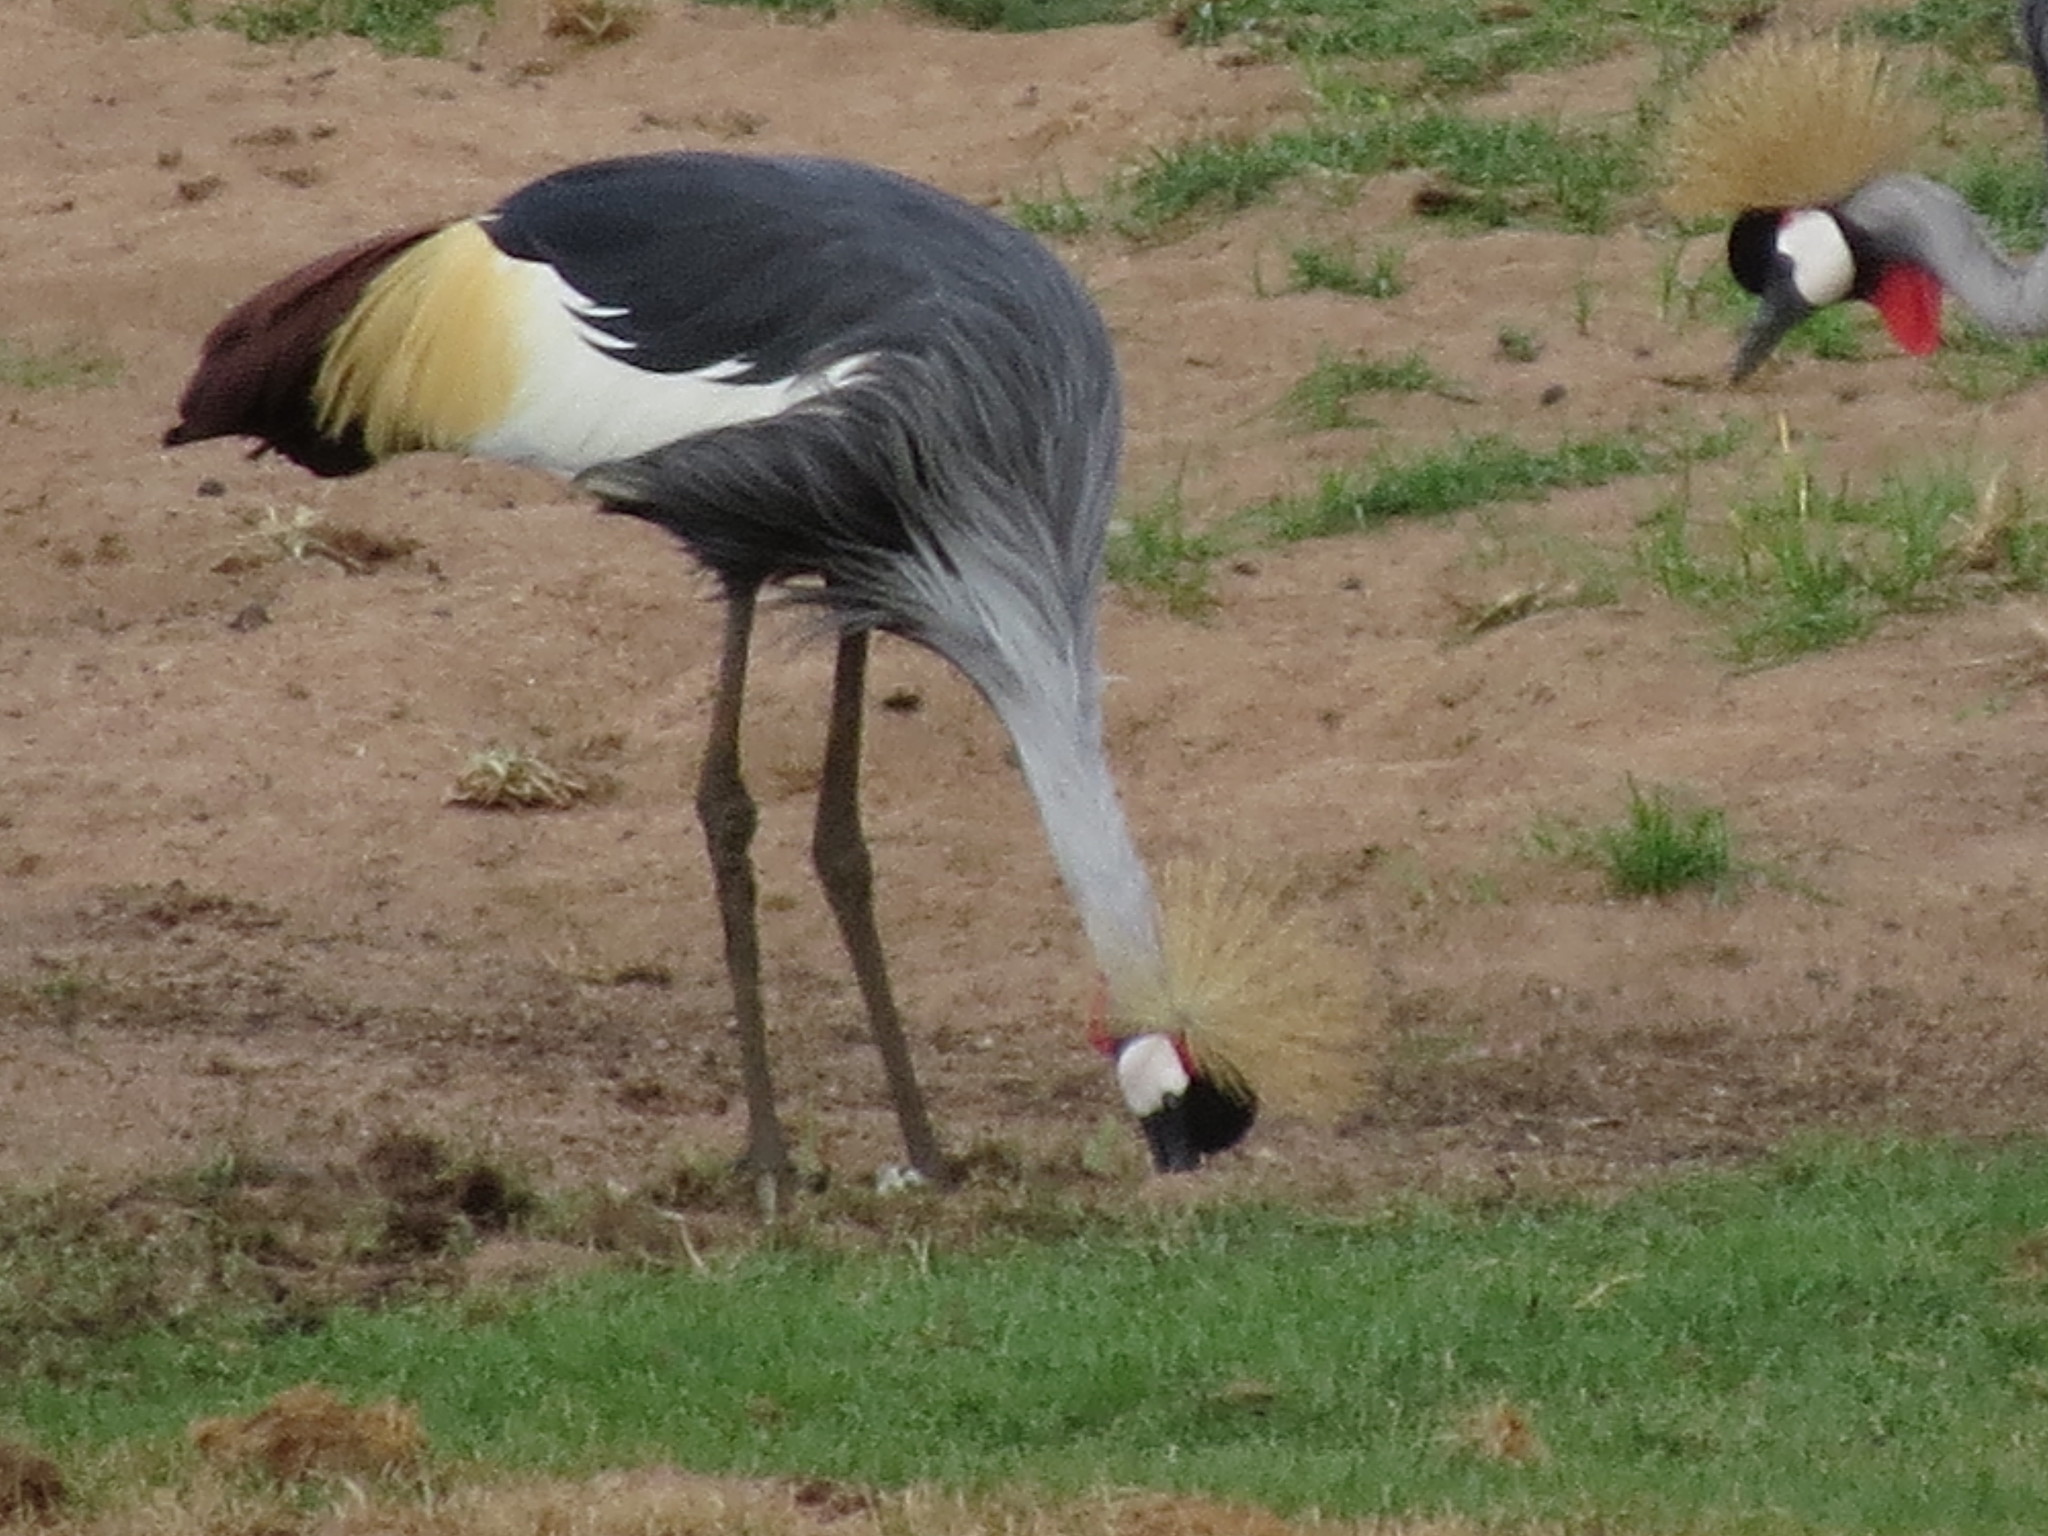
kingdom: Animalia
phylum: Chordata
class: Aves
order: Gruiformes
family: Gruidae
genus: Balearica
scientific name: Balearica regulorum
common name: Grey crowned crane
